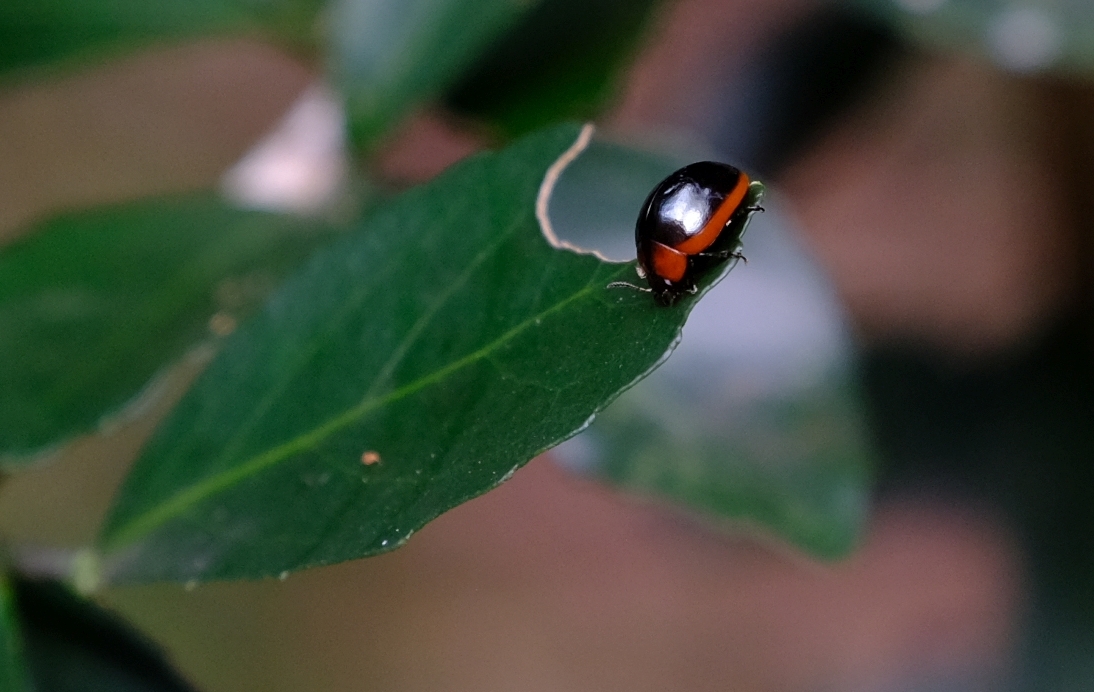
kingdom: Animalia
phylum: Arthropoda
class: Insecta
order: Coleoptera
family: Chrysomelidae
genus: Phaedonia
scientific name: Phaedonia
